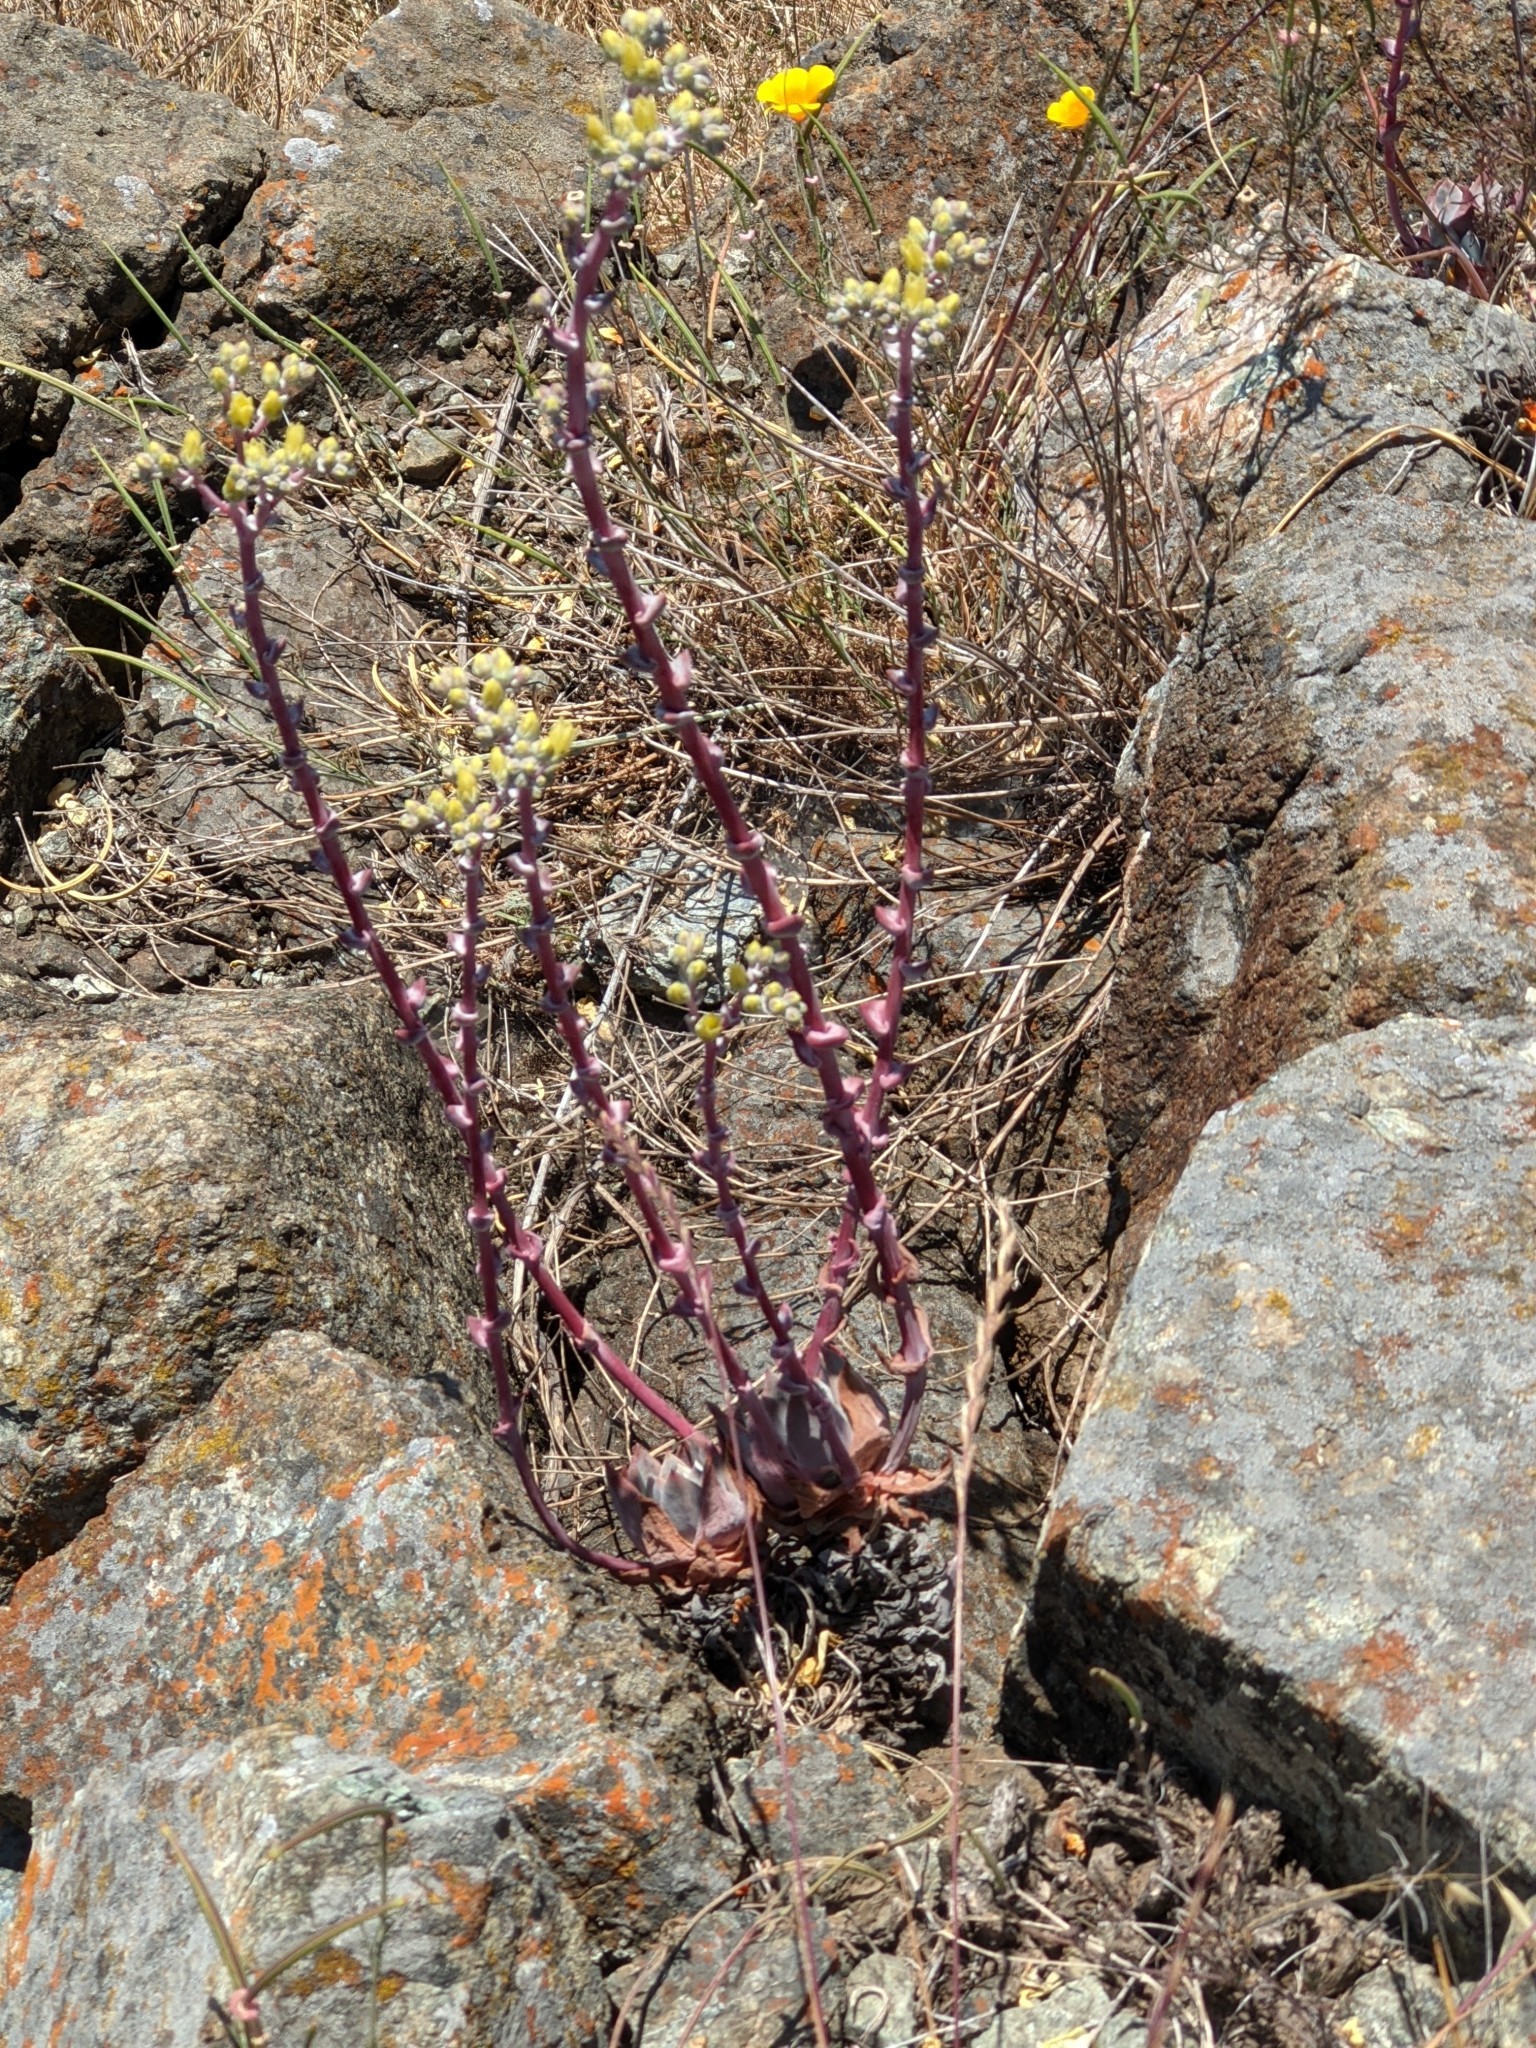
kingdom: Plantae
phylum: Tracheophyta
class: Magnoliopsida
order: Saxifragales
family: Crassulaceae
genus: Dudleya
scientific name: Dudleya farinosa
